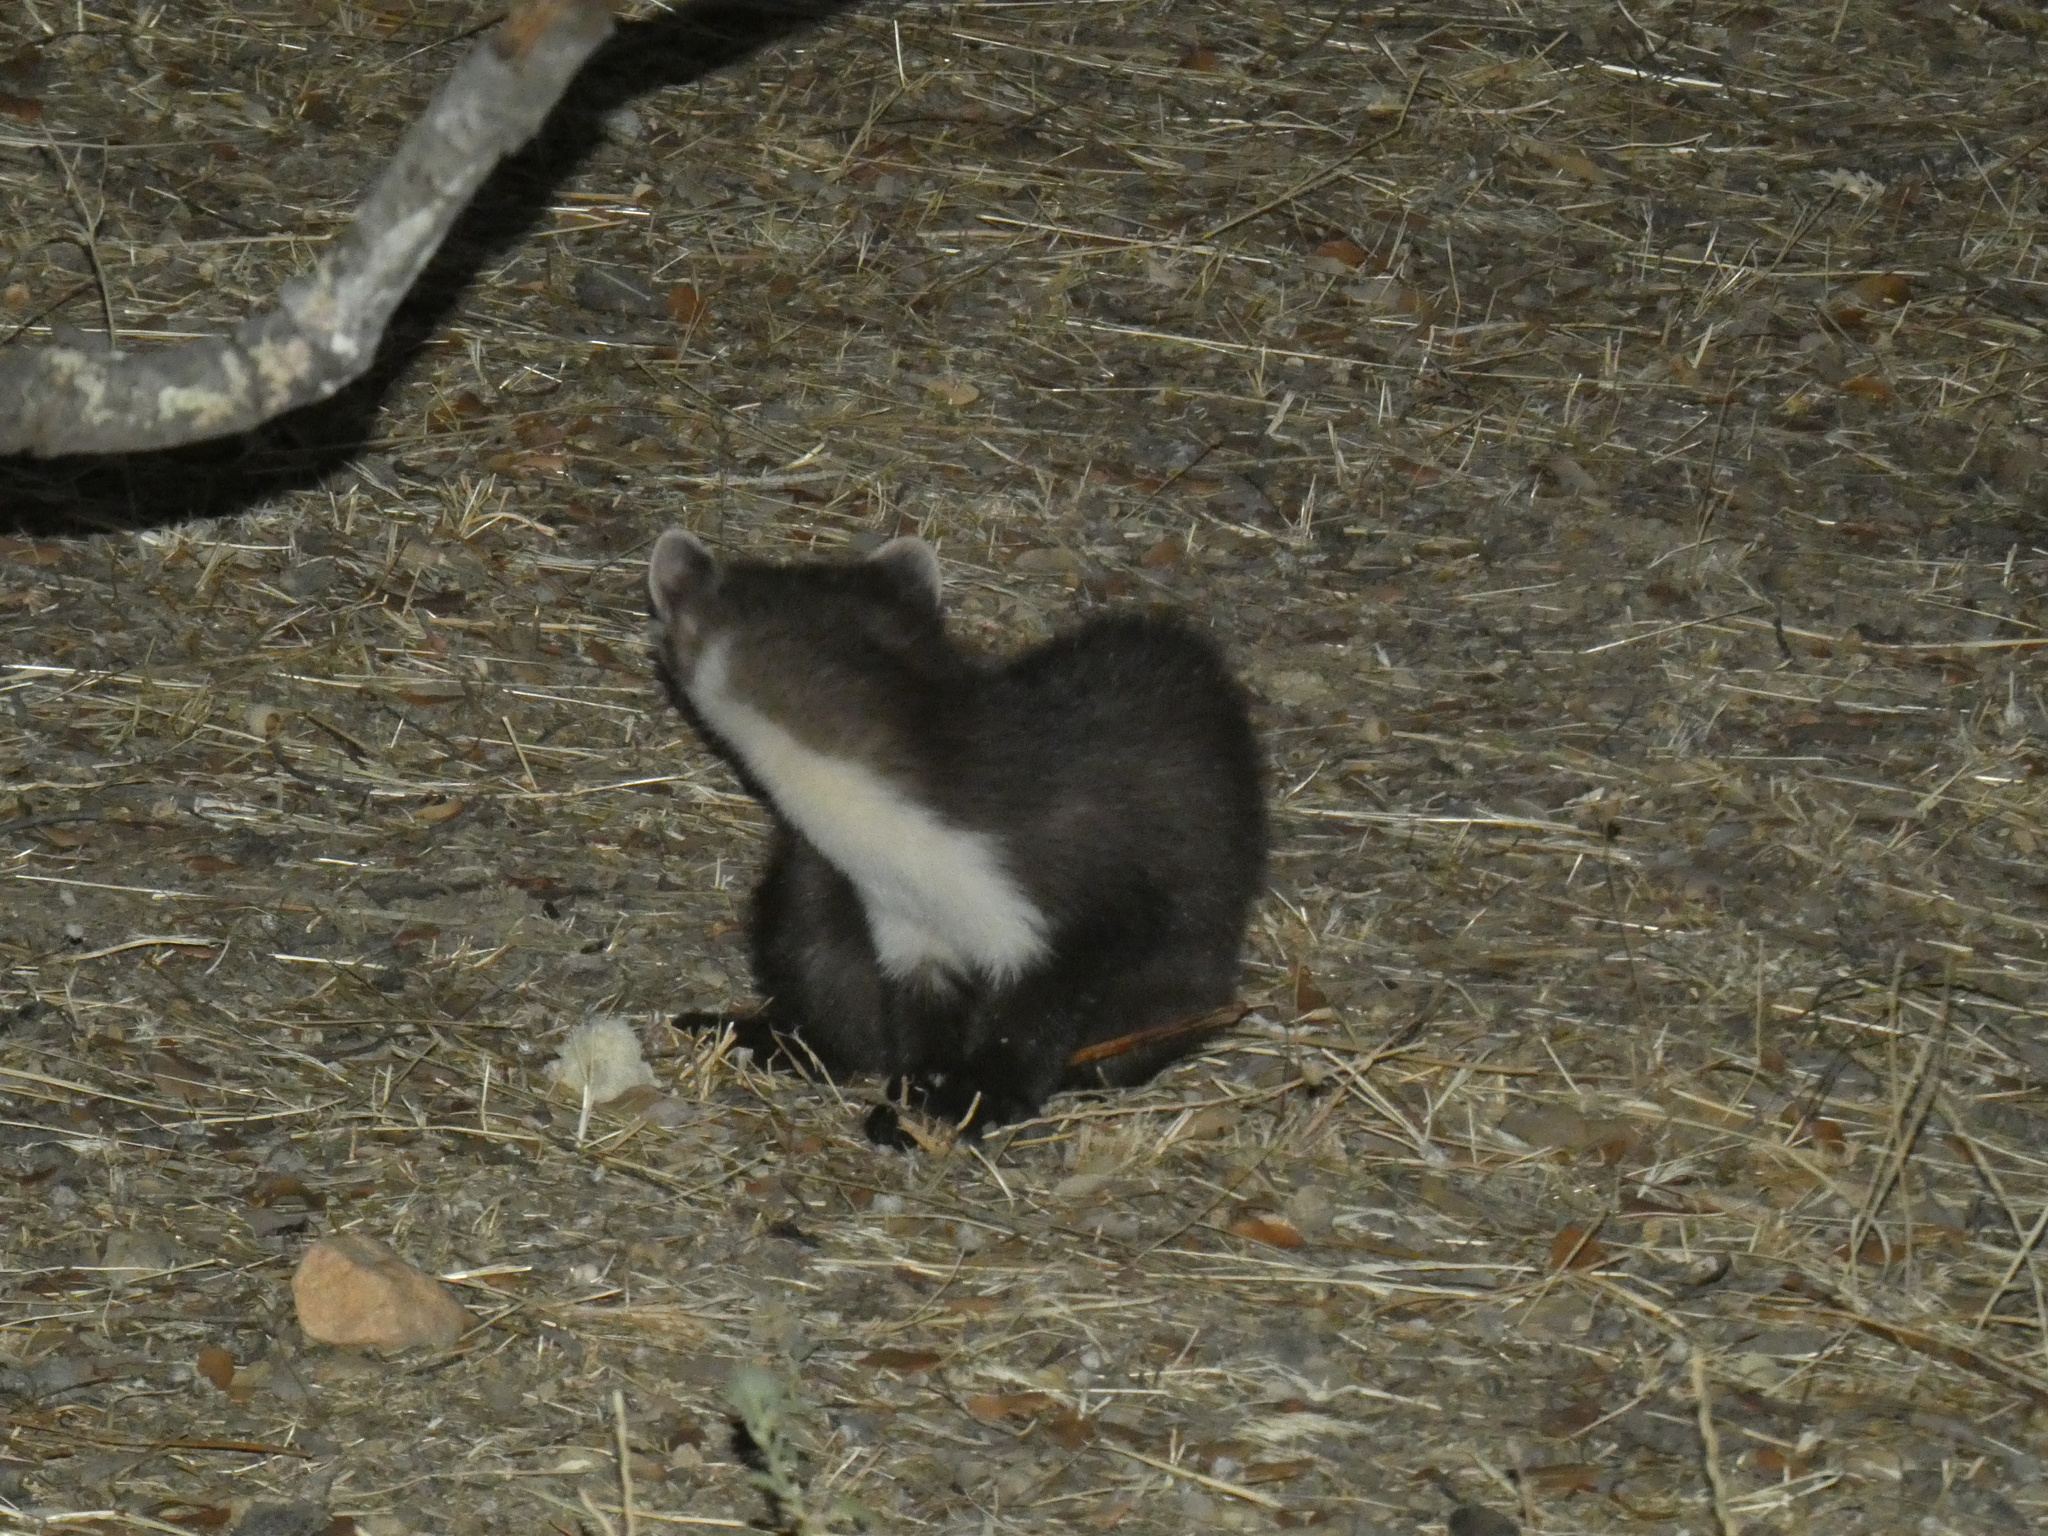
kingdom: Animalia
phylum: Chordata
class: Mammalia
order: Carnivora
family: Mustelidae
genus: Martes
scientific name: Martes foina
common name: Beech marten
